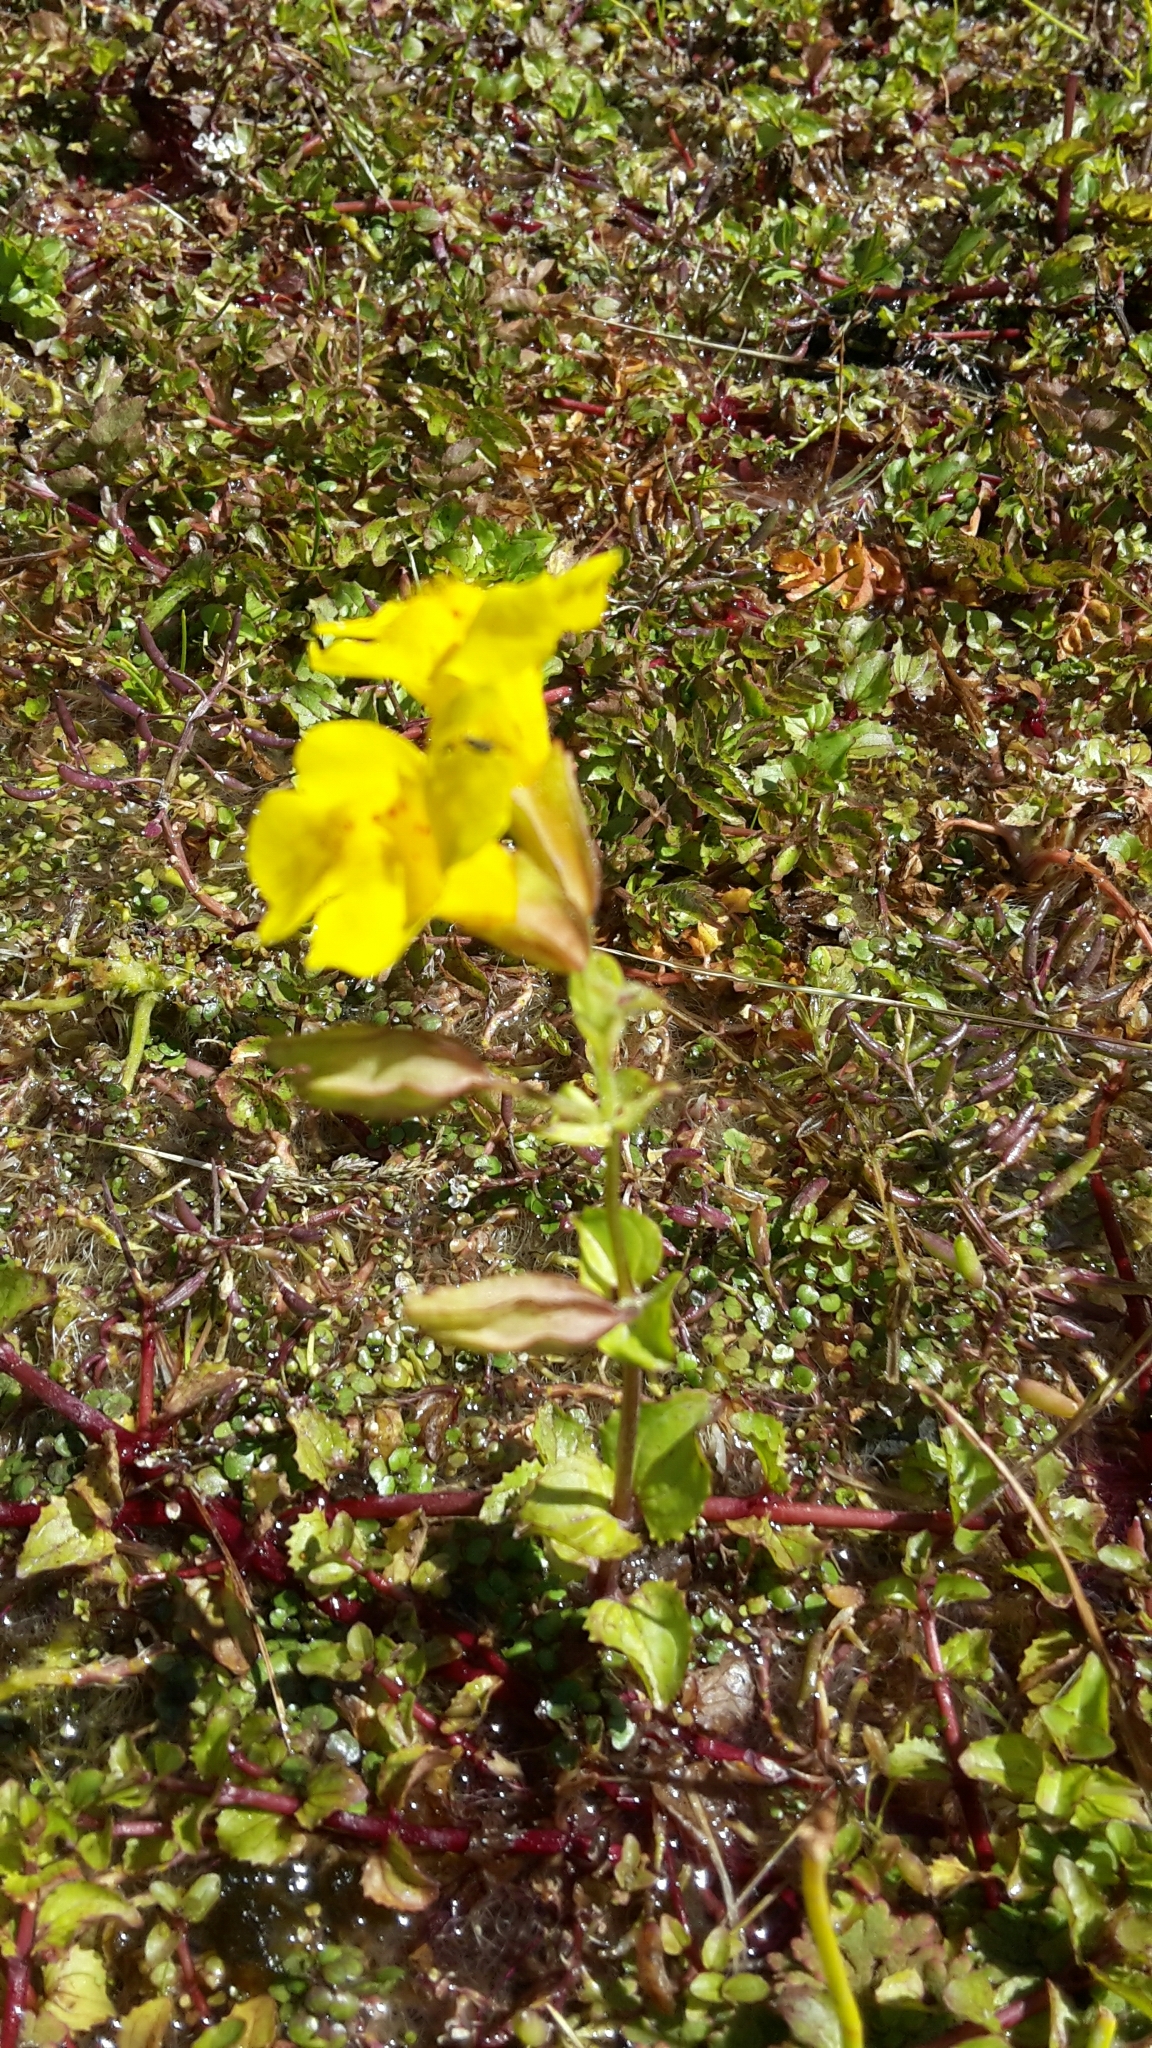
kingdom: Plantae
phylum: Tracheophyta
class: Magnoliopsida
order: Lamiales
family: Phrymaceae
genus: Erythranthe
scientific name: Erythranthe guttata
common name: Monkeyflower
